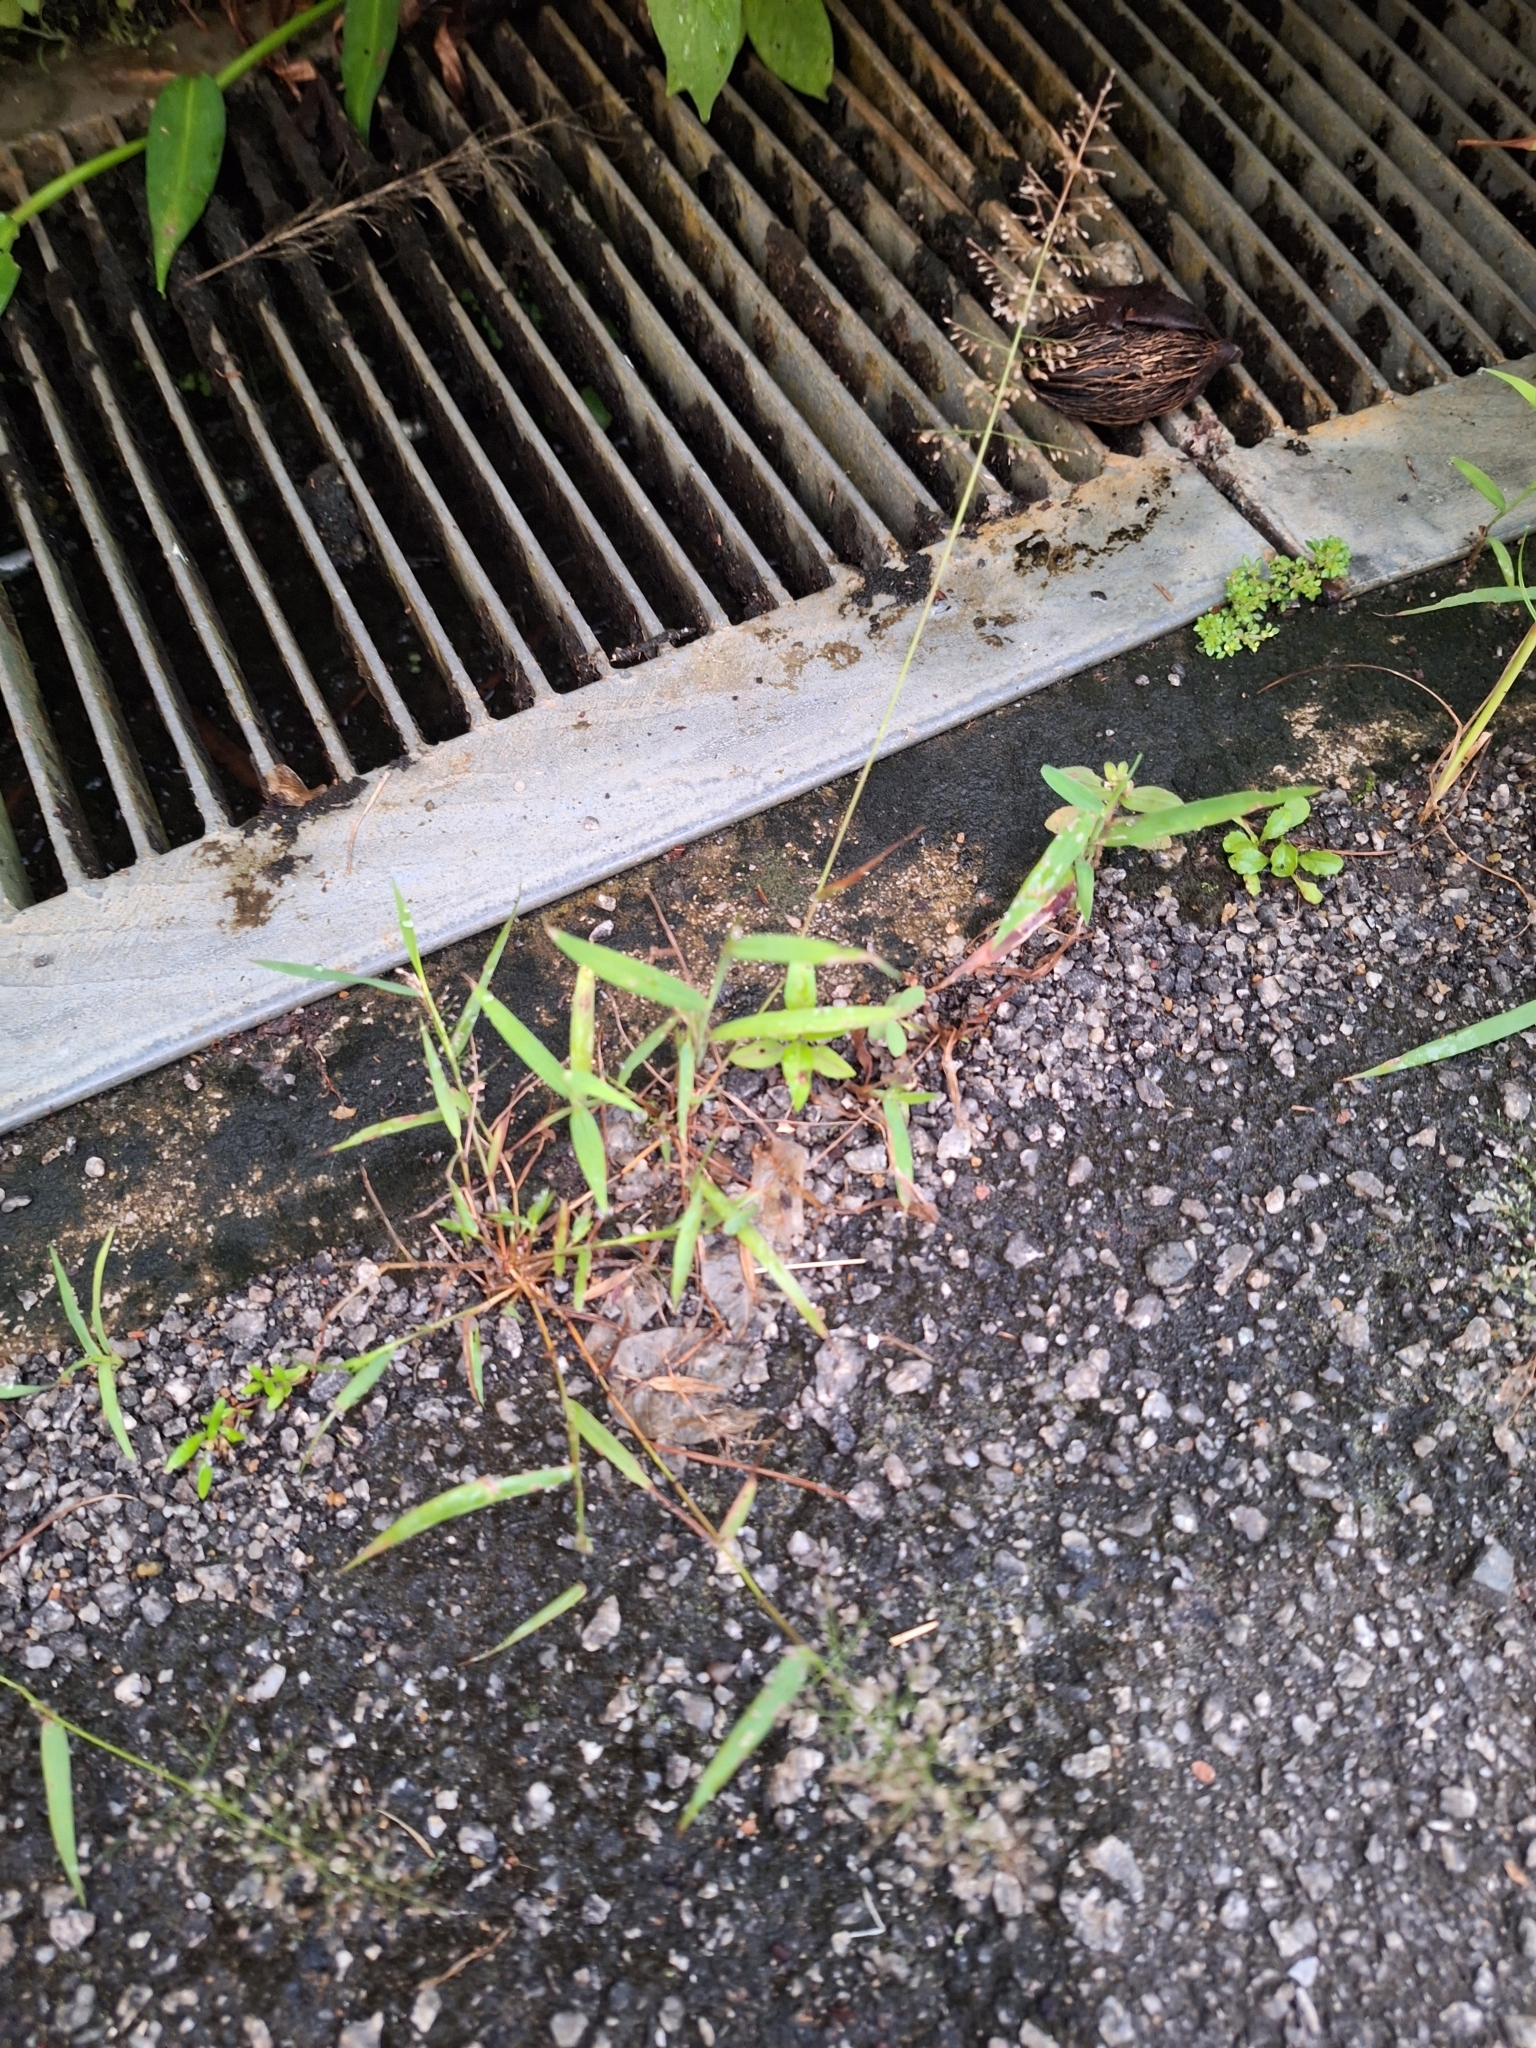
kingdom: Plantae
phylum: Tracheophyta
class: Liliopsida
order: Poales
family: Poaceae
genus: Eragrostis
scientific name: Eragrostis tenella
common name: Japanese lovegrass
